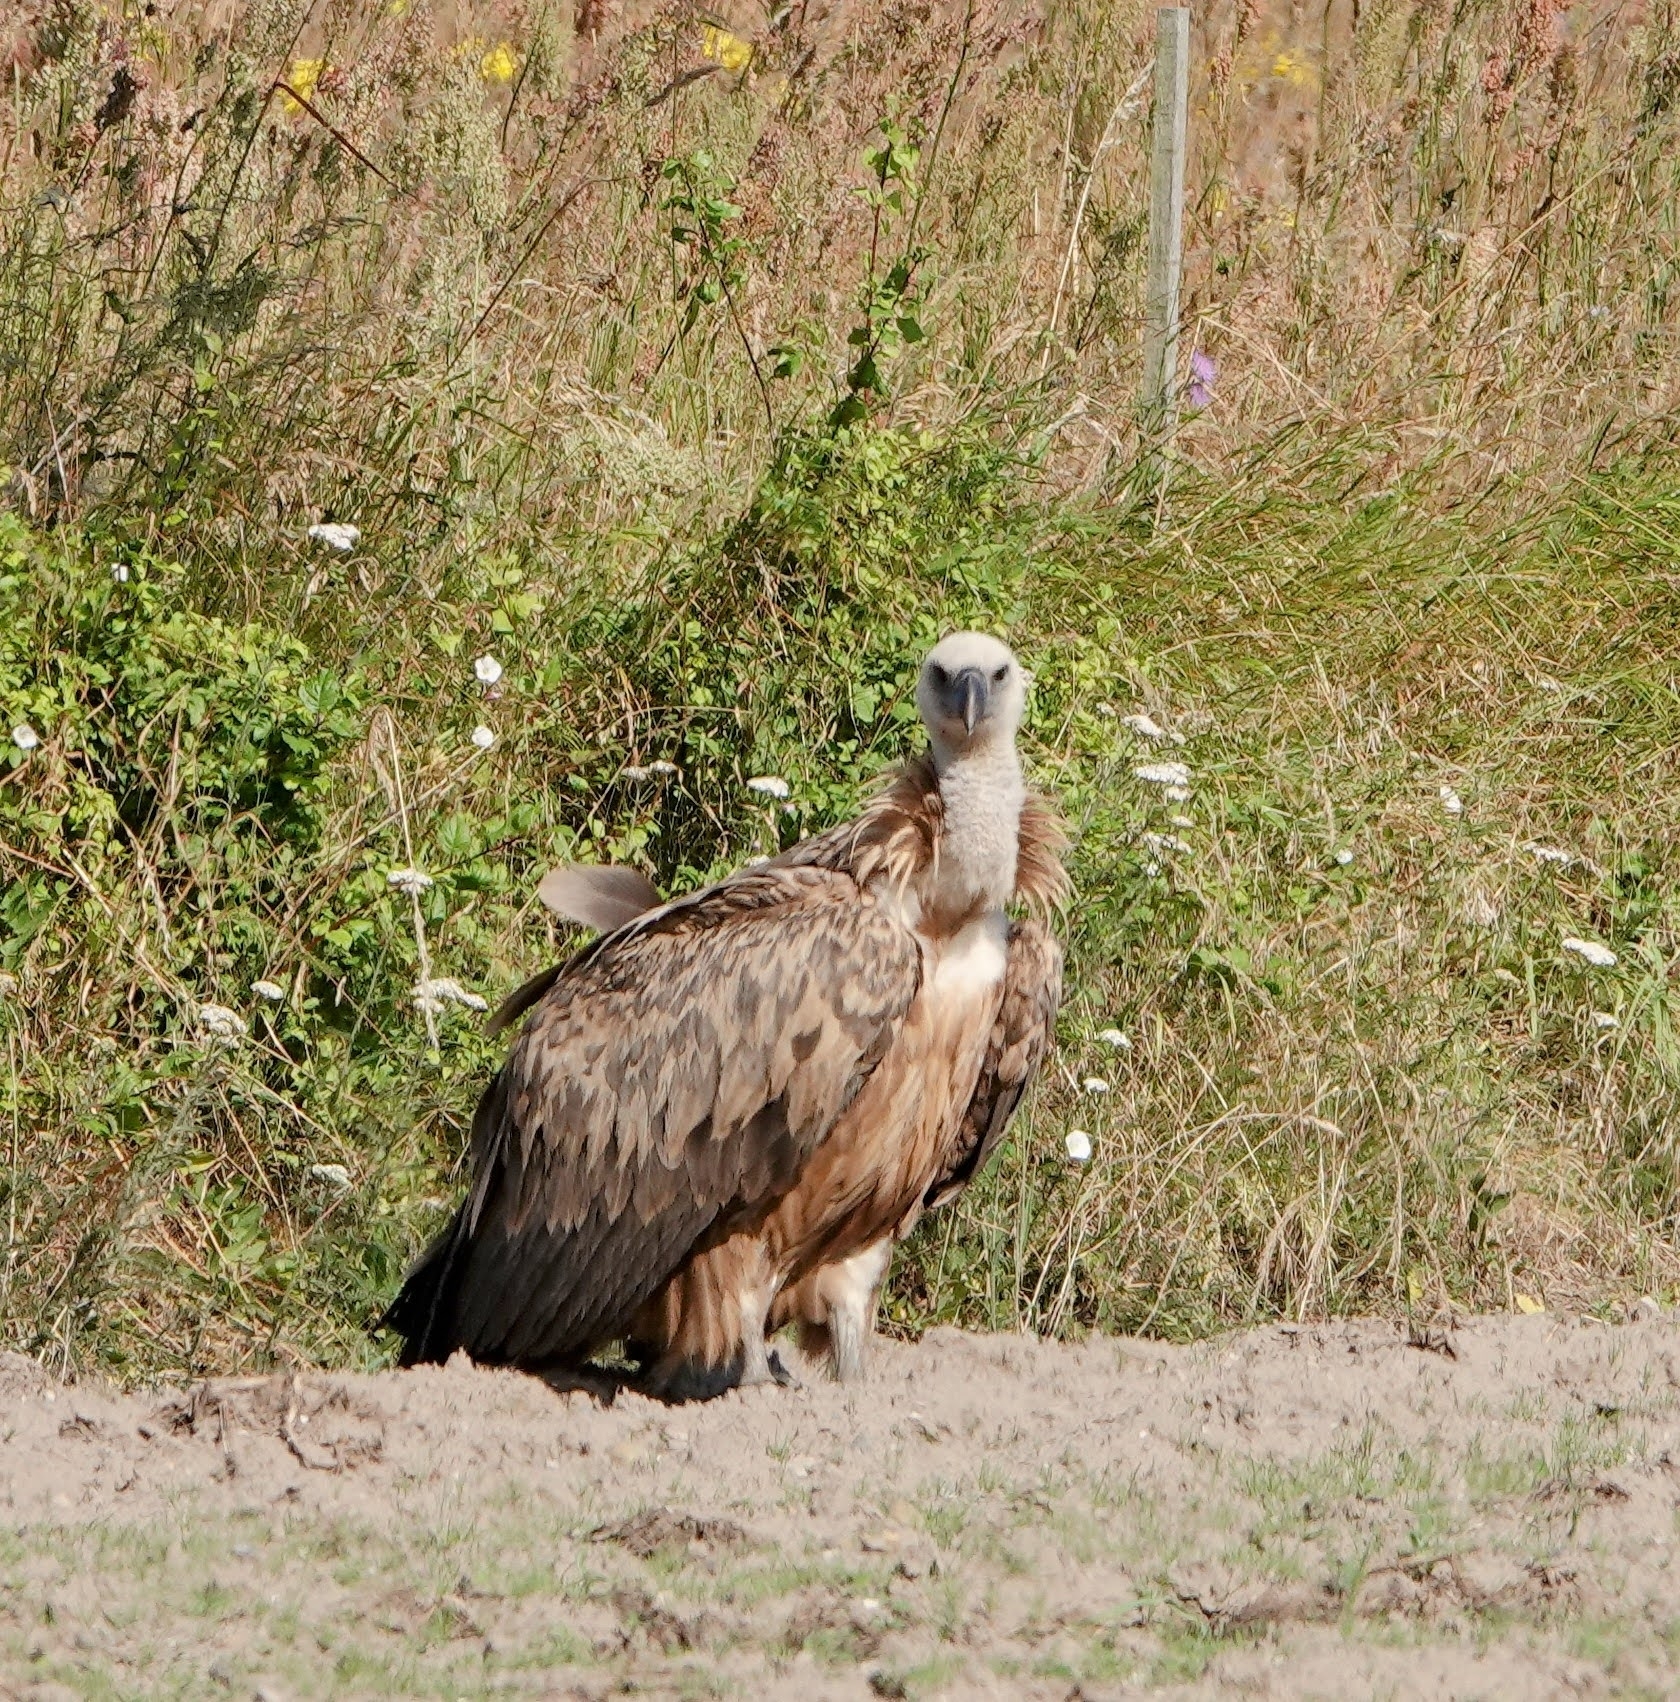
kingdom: Animalia
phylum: Chordata
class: Aves
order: Accipitriformes
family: Accipitridae
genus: Gyps
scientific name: Gyps fulvus
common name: Griffon vulture
